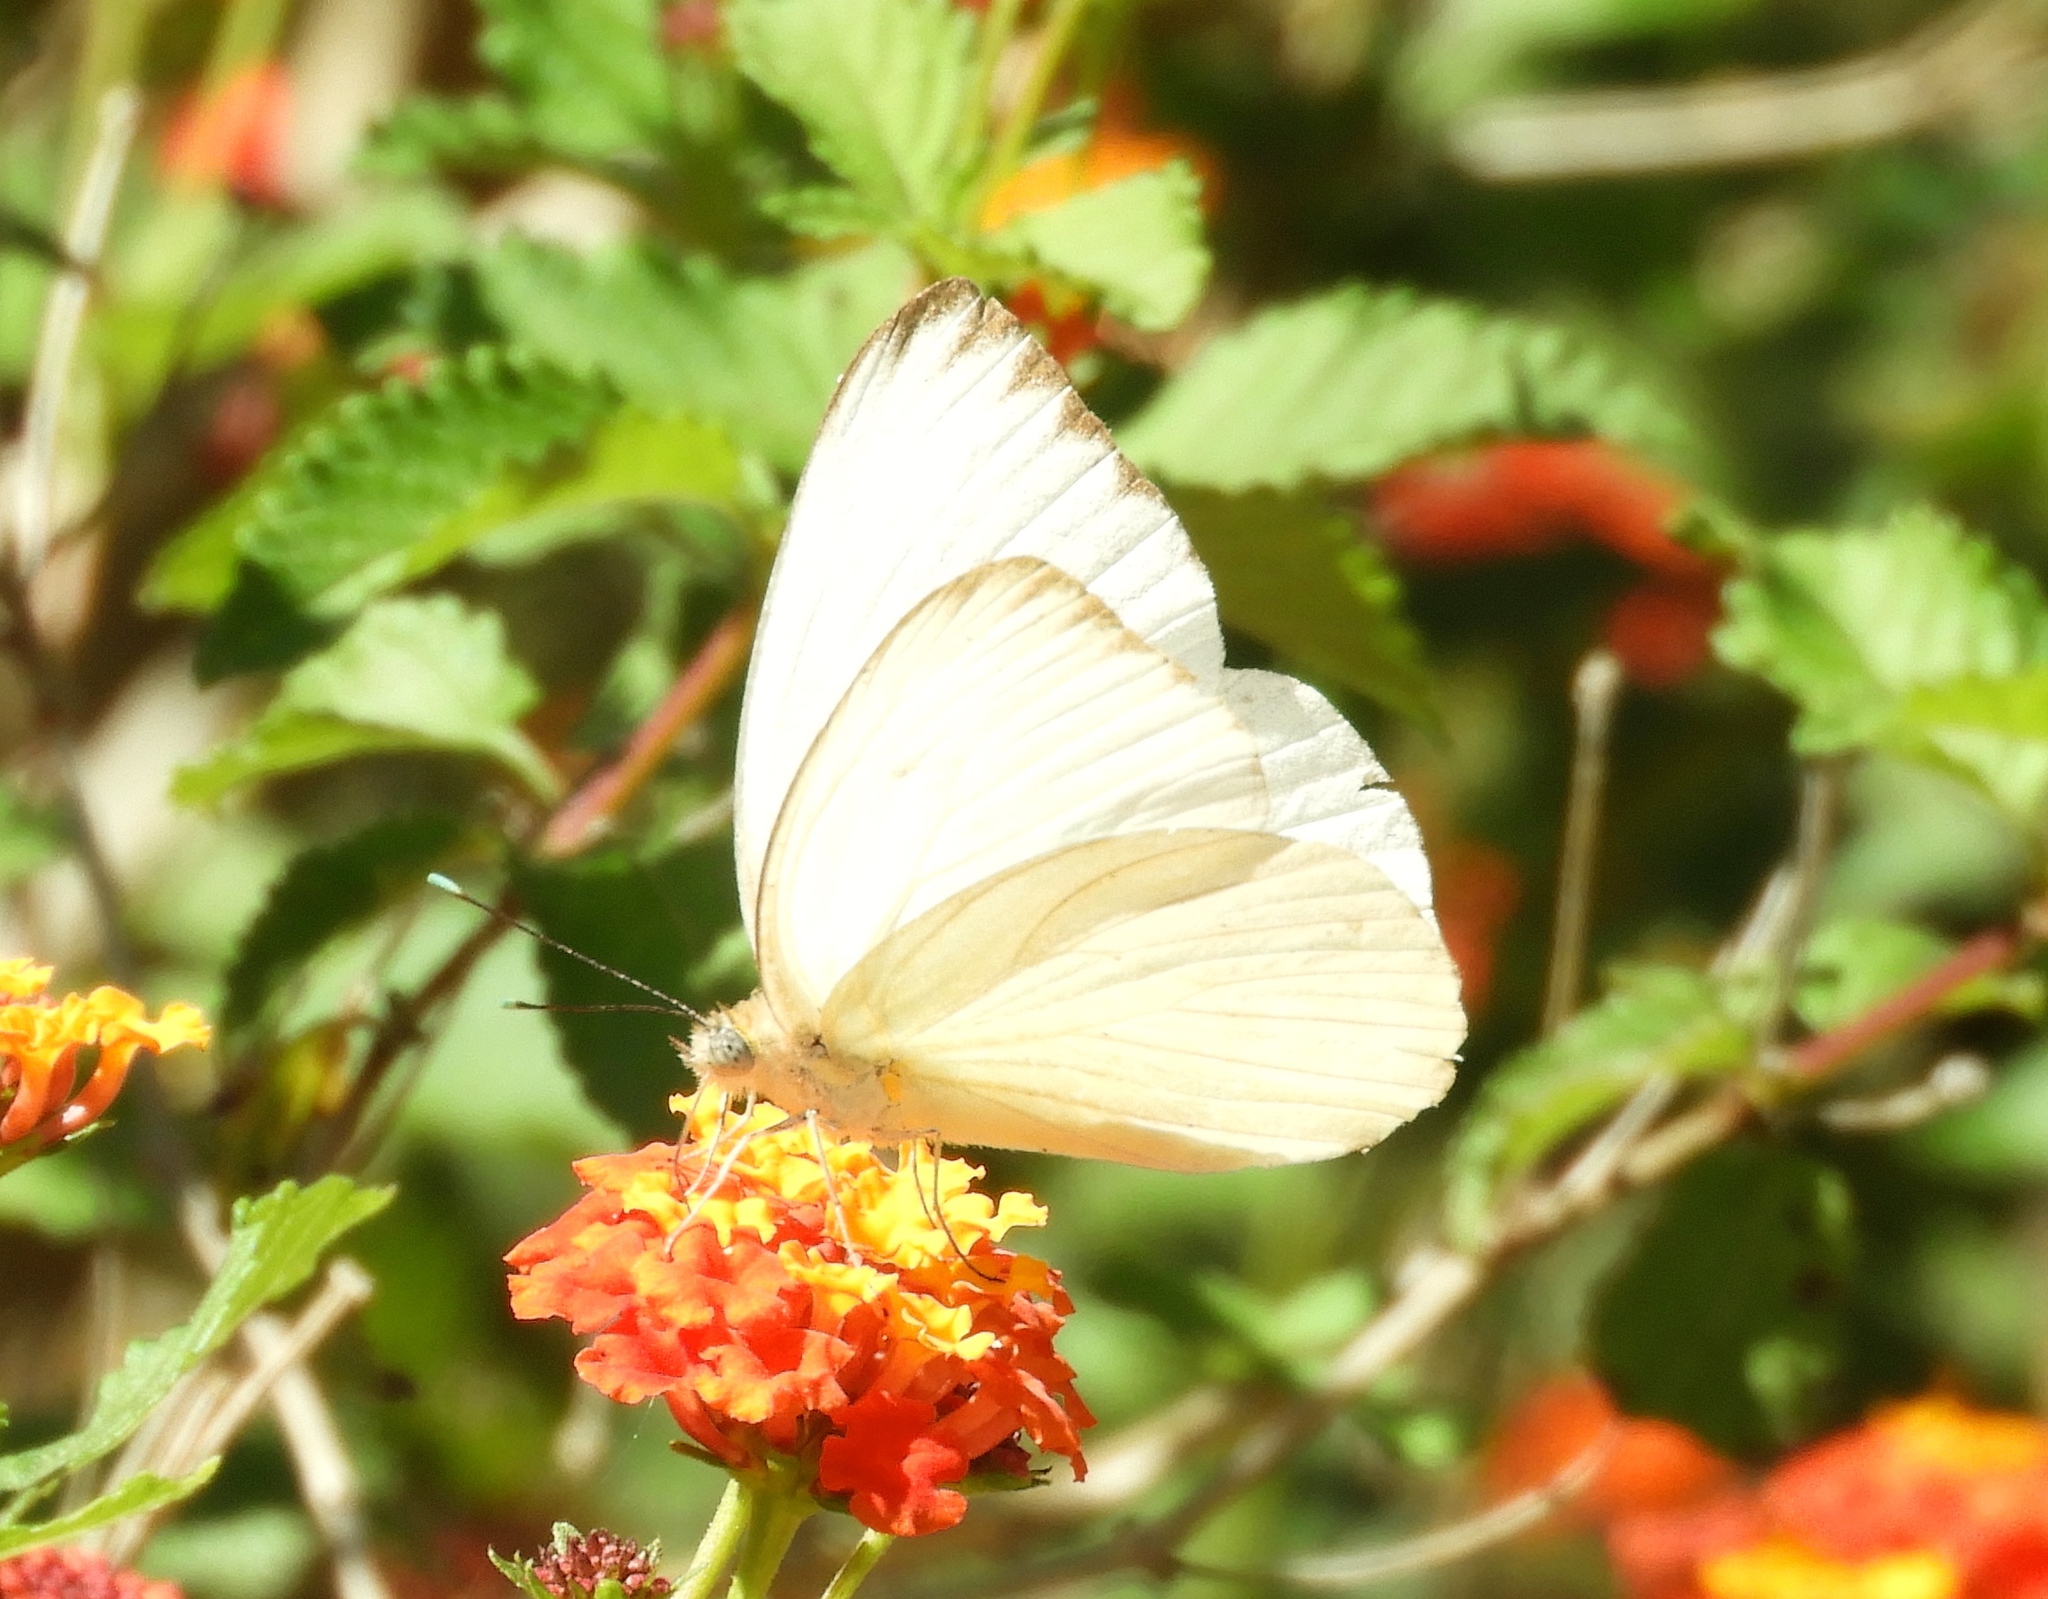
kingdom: Animalia
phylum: Arthropoda
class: Insecta
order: Lepidoptera
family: Pieridae
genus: Ascia
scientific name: Ascia monuste
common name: Great southern white
